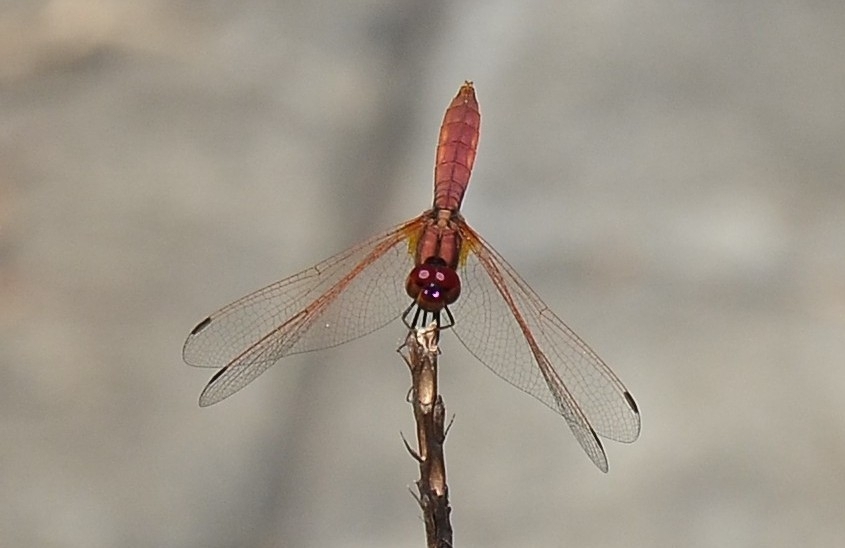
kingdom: Animalia
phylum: Arthropoda
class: Insecta
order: Odonata
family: Libellulidae
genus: Trithemis
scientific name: Trithemis aurora
